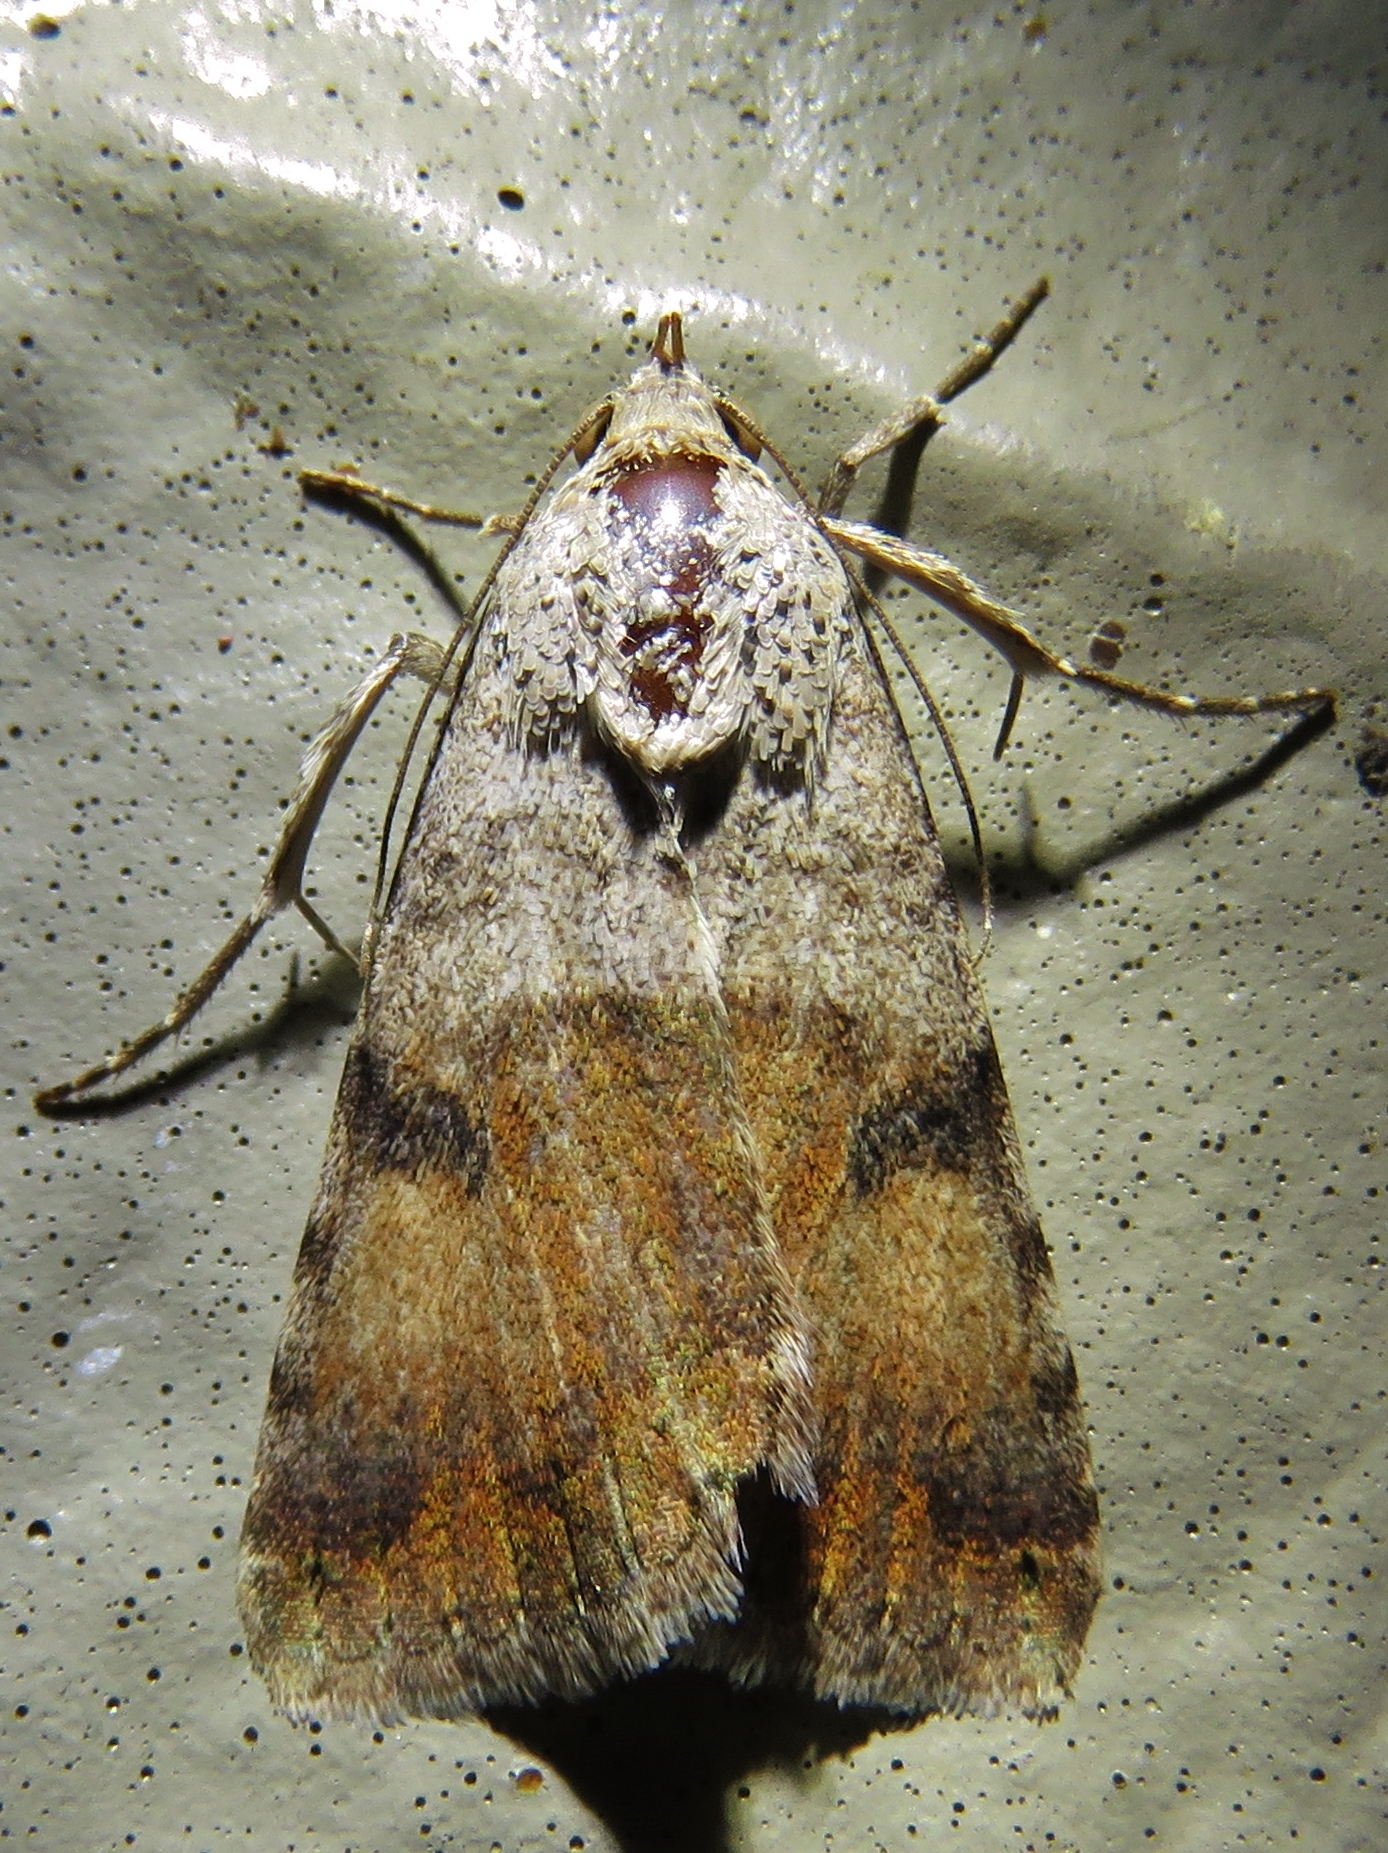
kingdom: Animalia
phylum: Arthropoda
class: Insecta
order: Lepidoptera
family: Erebidae
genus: Bulia
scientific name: Bulia deducta
